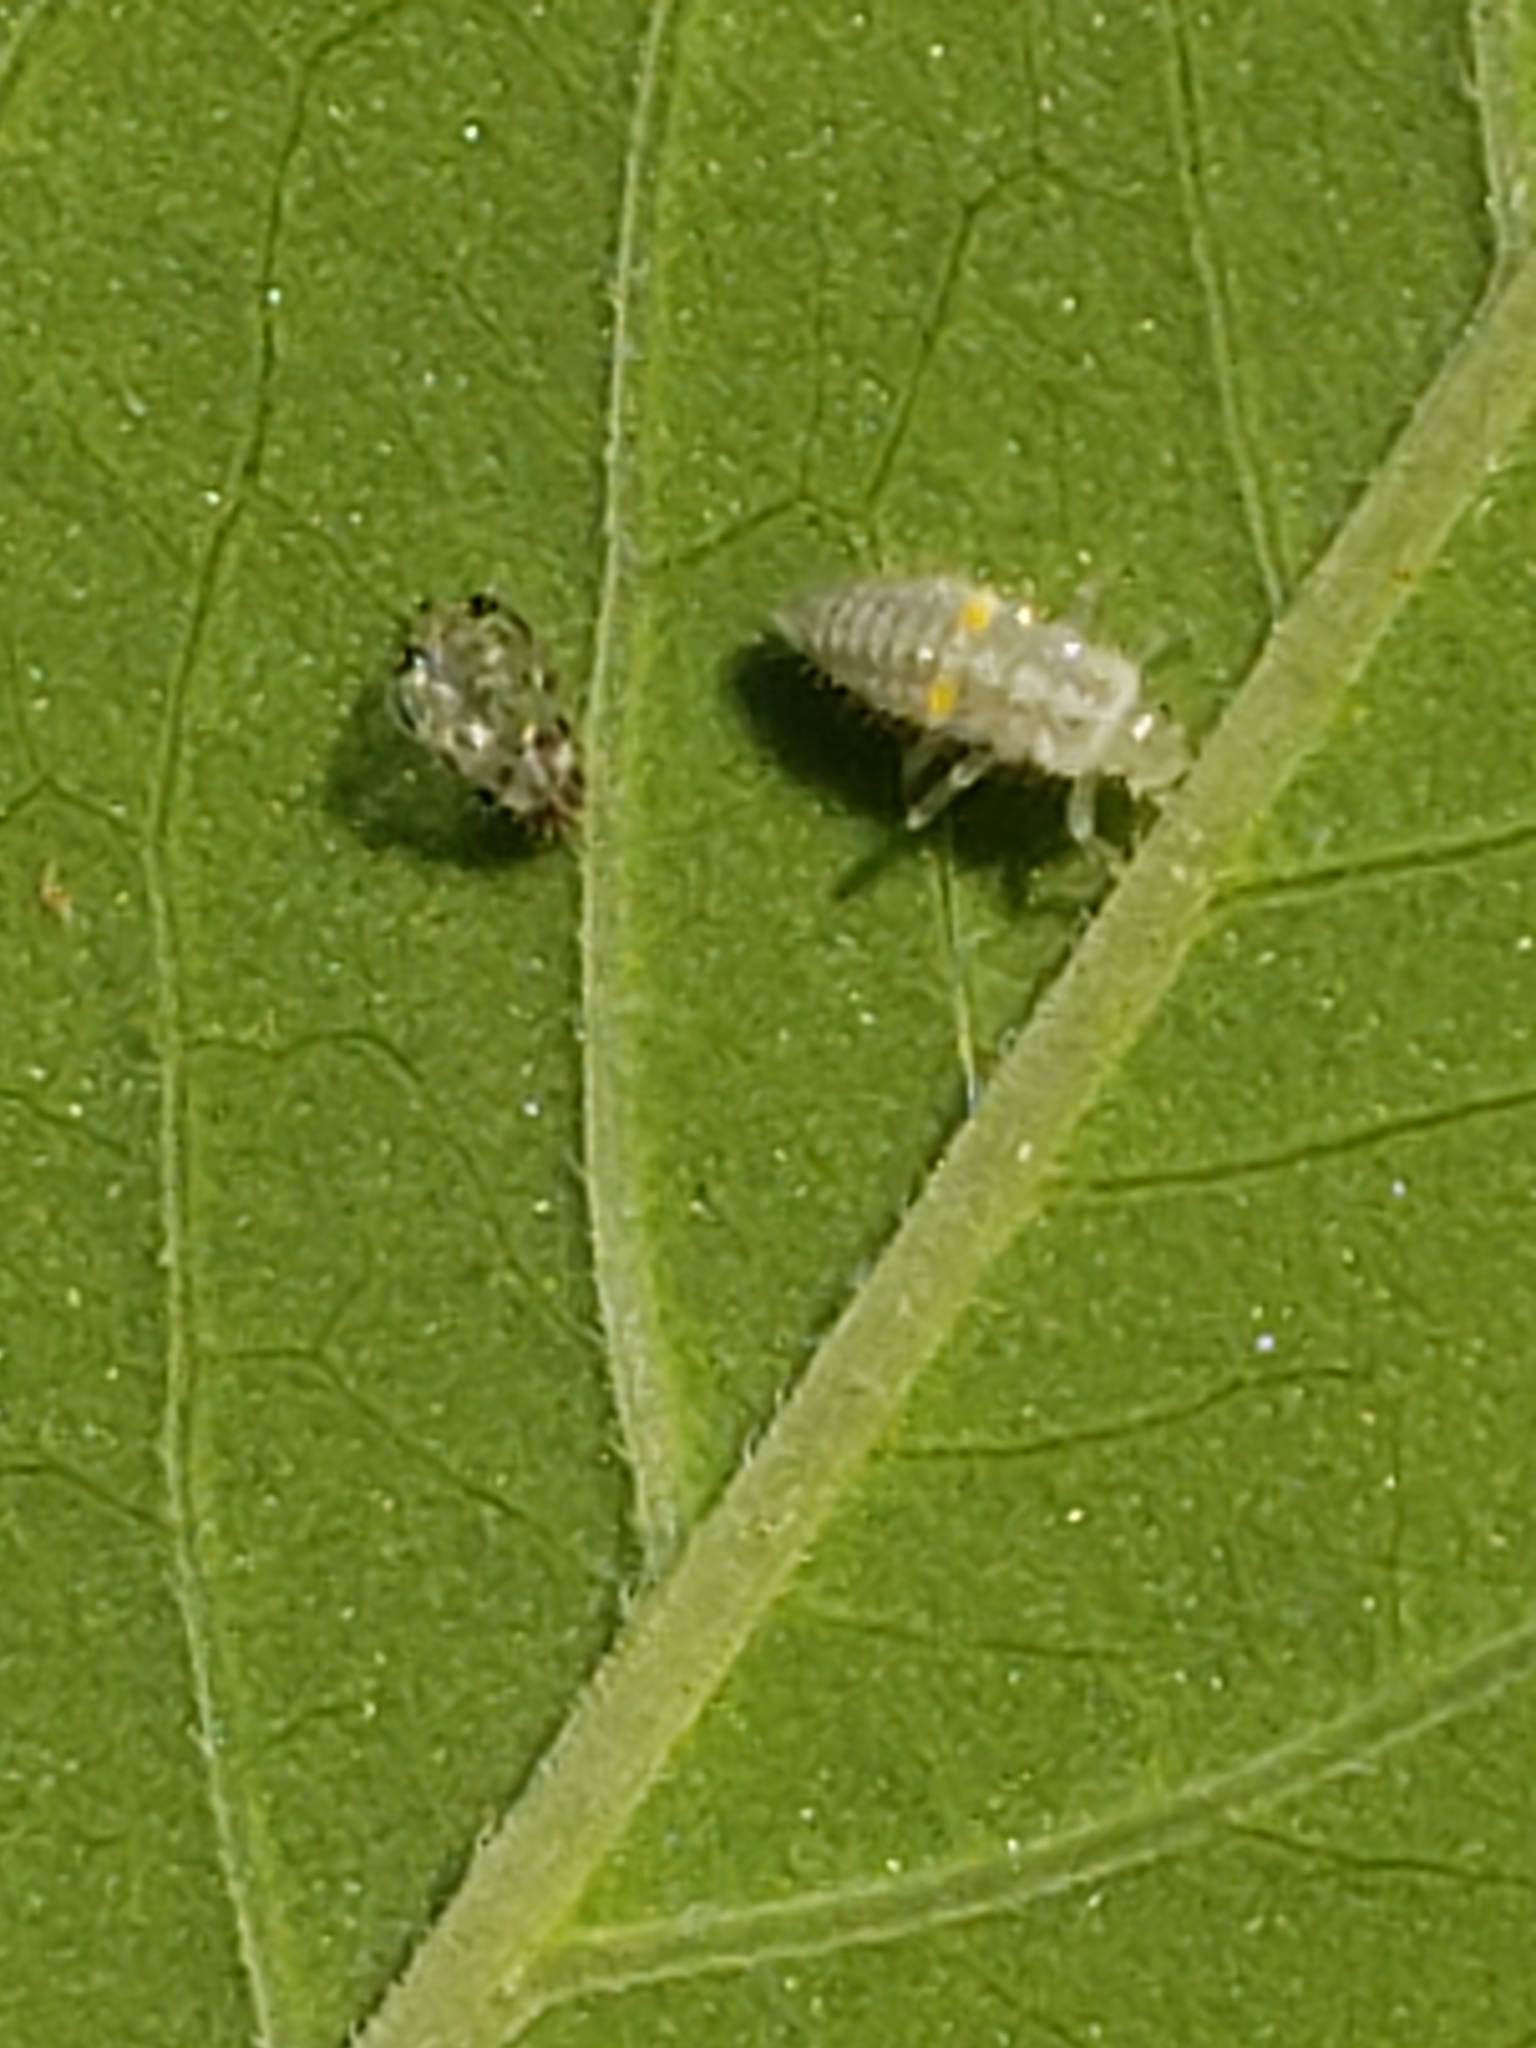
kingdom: Animalia
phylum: Arthropoda
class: Insecta
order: Coleoptera
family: Coccinellidae
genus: Psyllobora
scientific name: Psyllobora vigintimaculata
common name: Ladybird beetle
